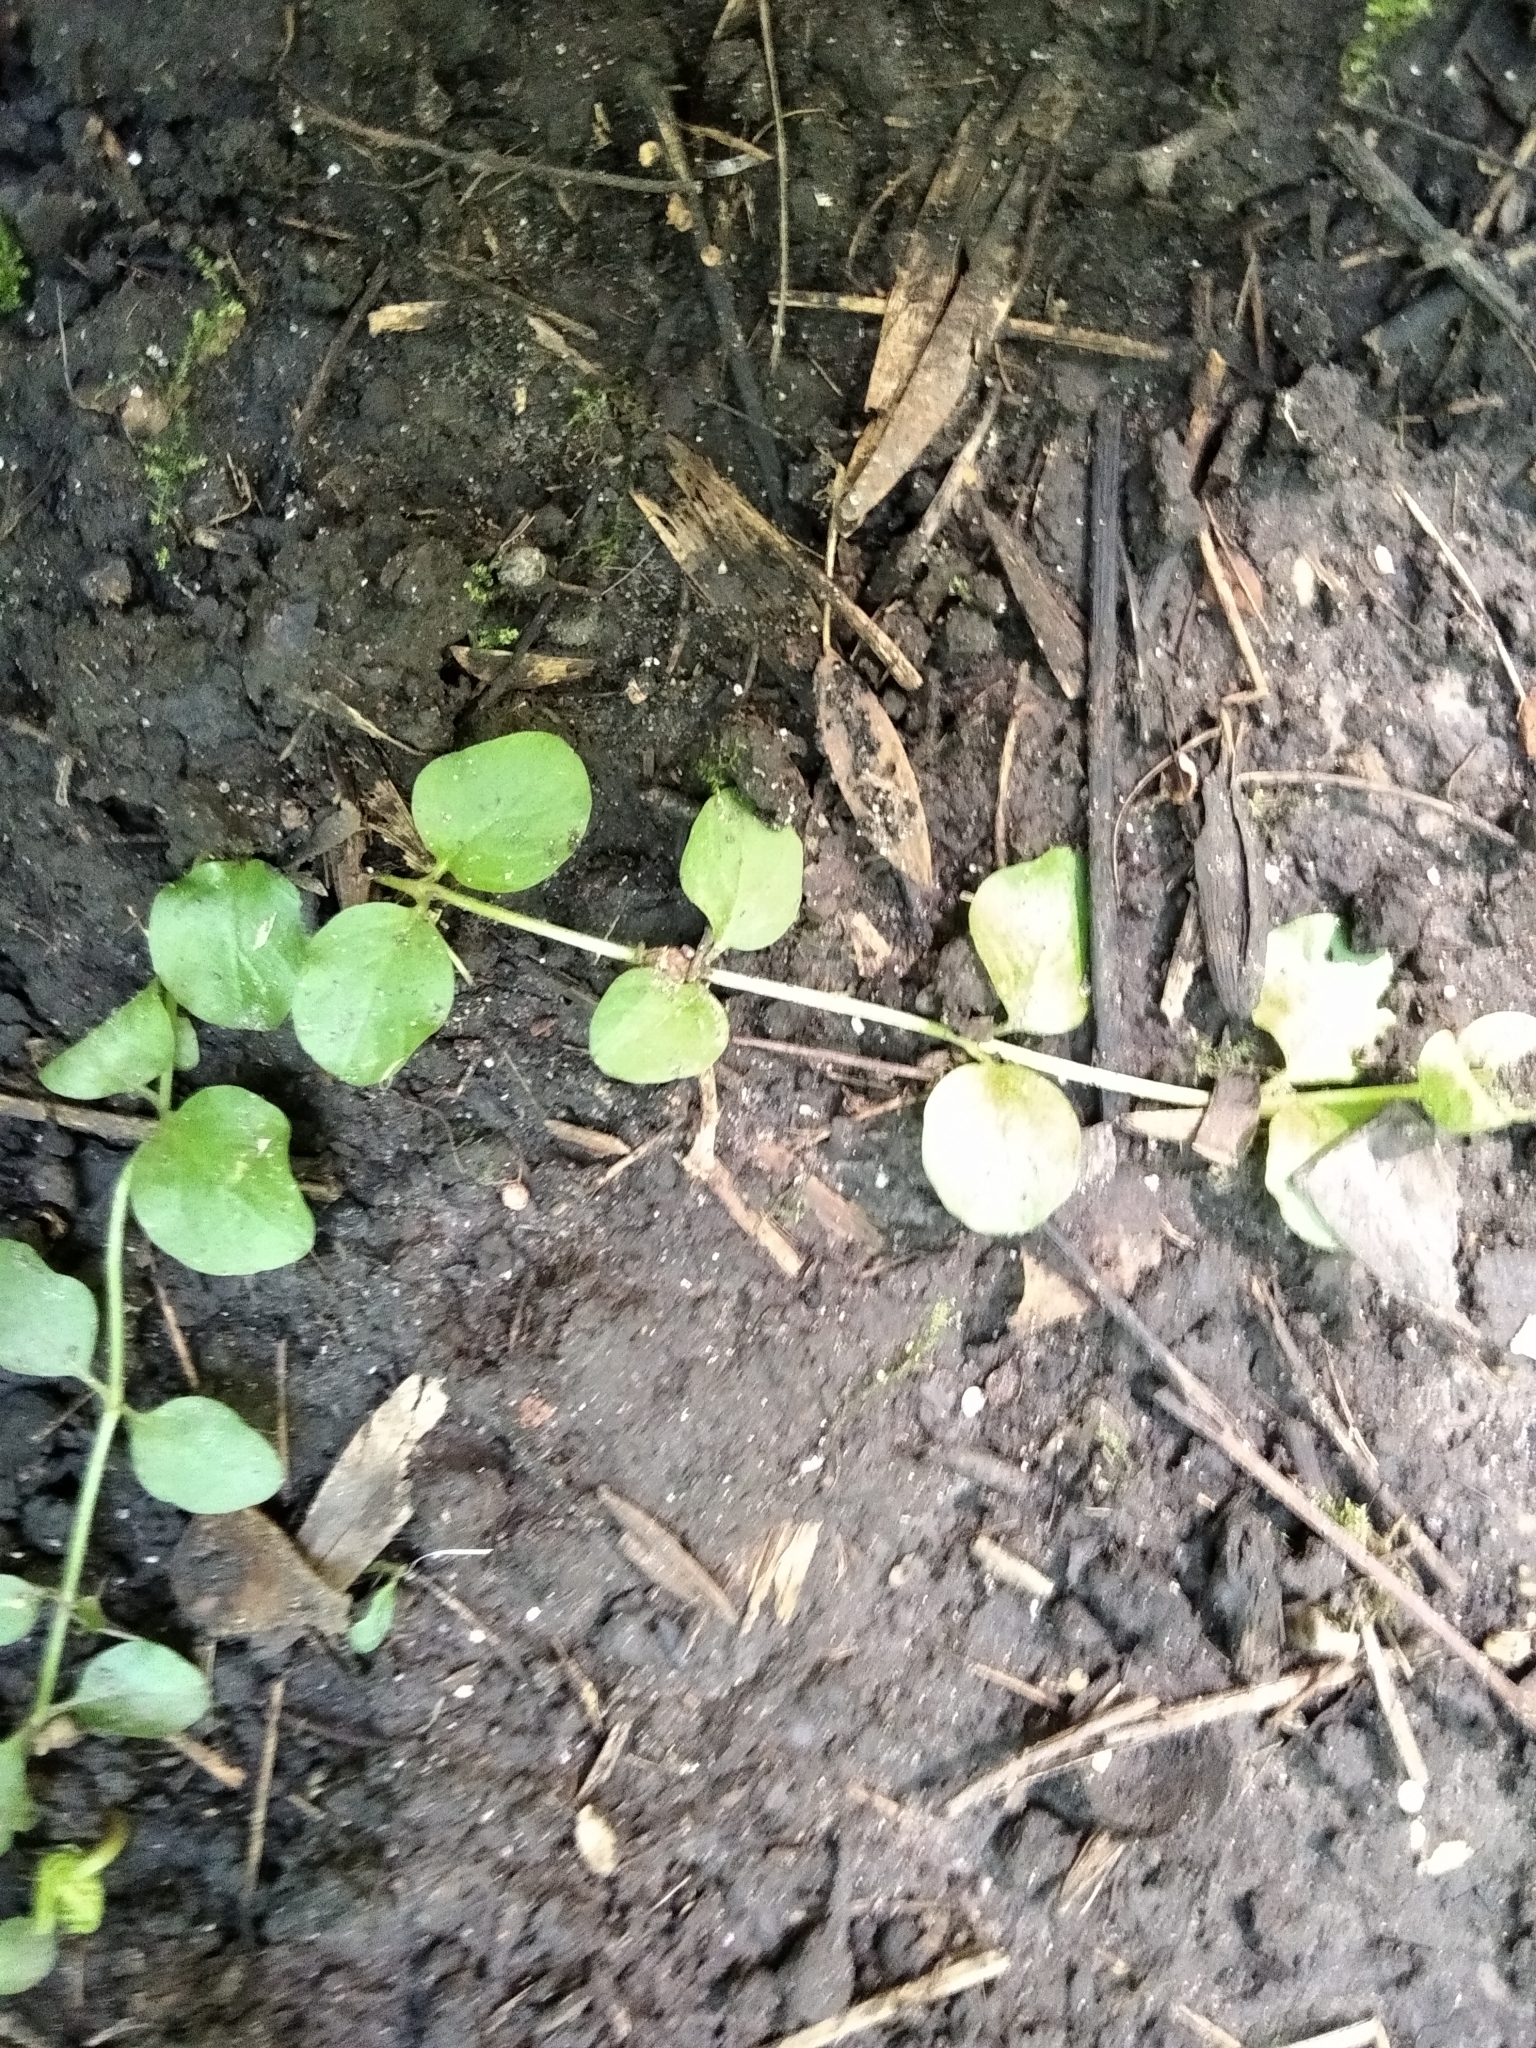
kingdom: Plantae
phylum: Tracheophyta
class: Magnoliopsida
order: Ericales
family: Primulaceae
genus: Lysimachia
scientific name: Lysimachia nummularia
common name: Moneywort
